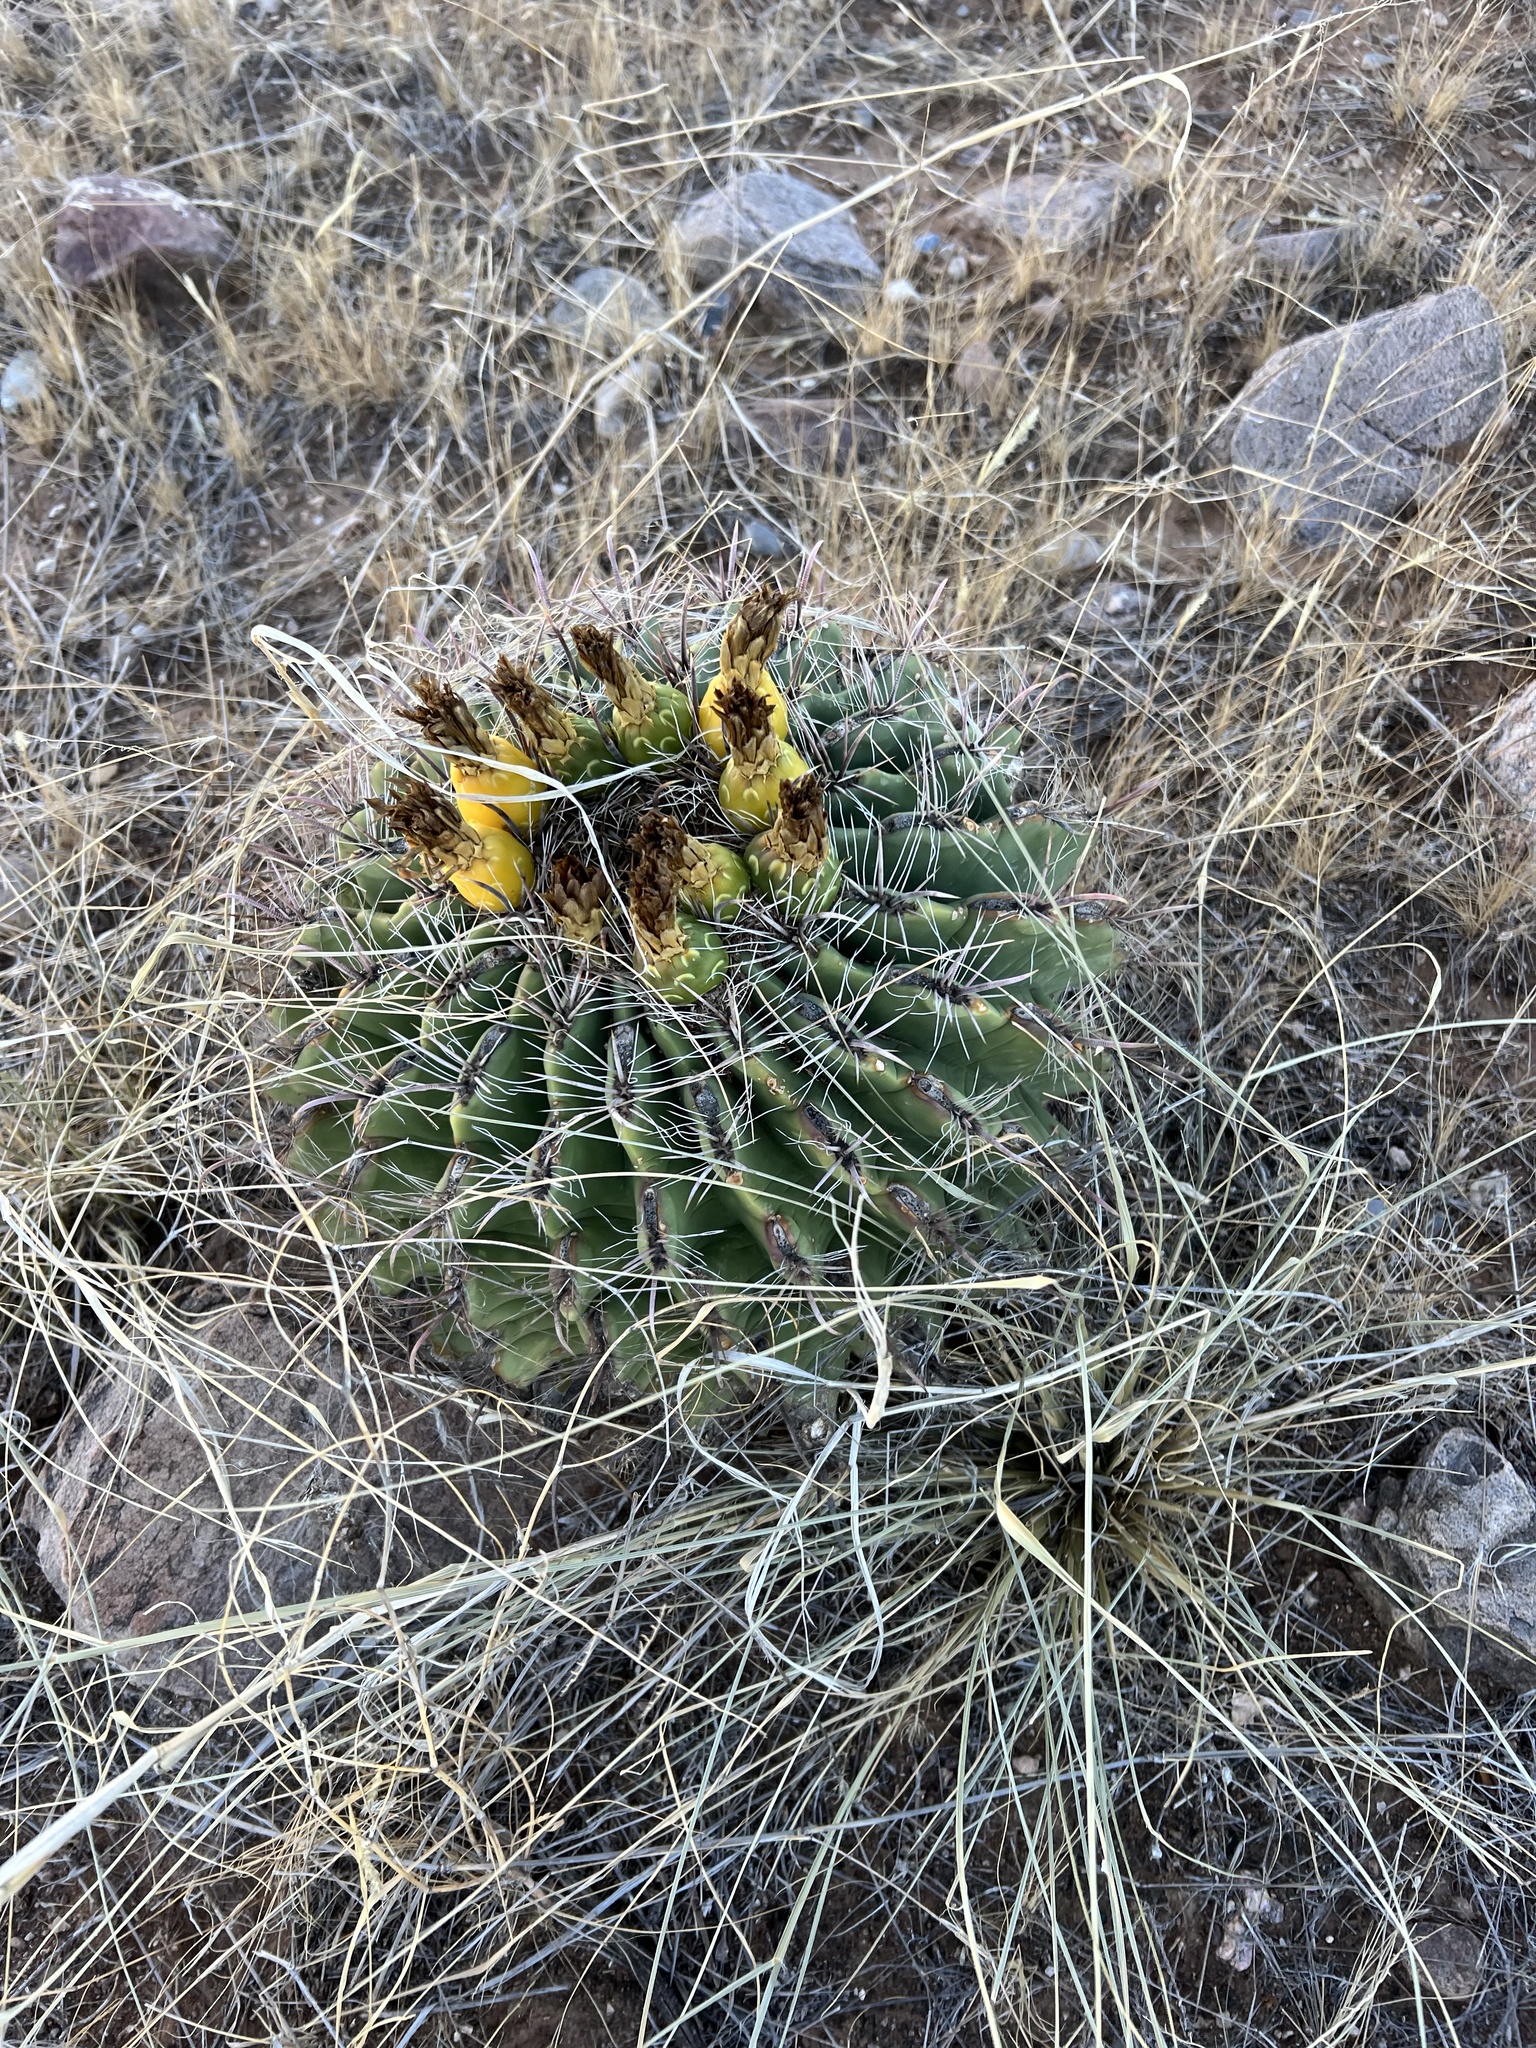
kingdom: Plantae
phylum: Tracheophyta
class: Magnoliopsida
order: Caryophyllales
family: Cactaceae
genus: Ferocactus
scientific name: Ferocactus wislizeni
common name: Candy barrel cactus
